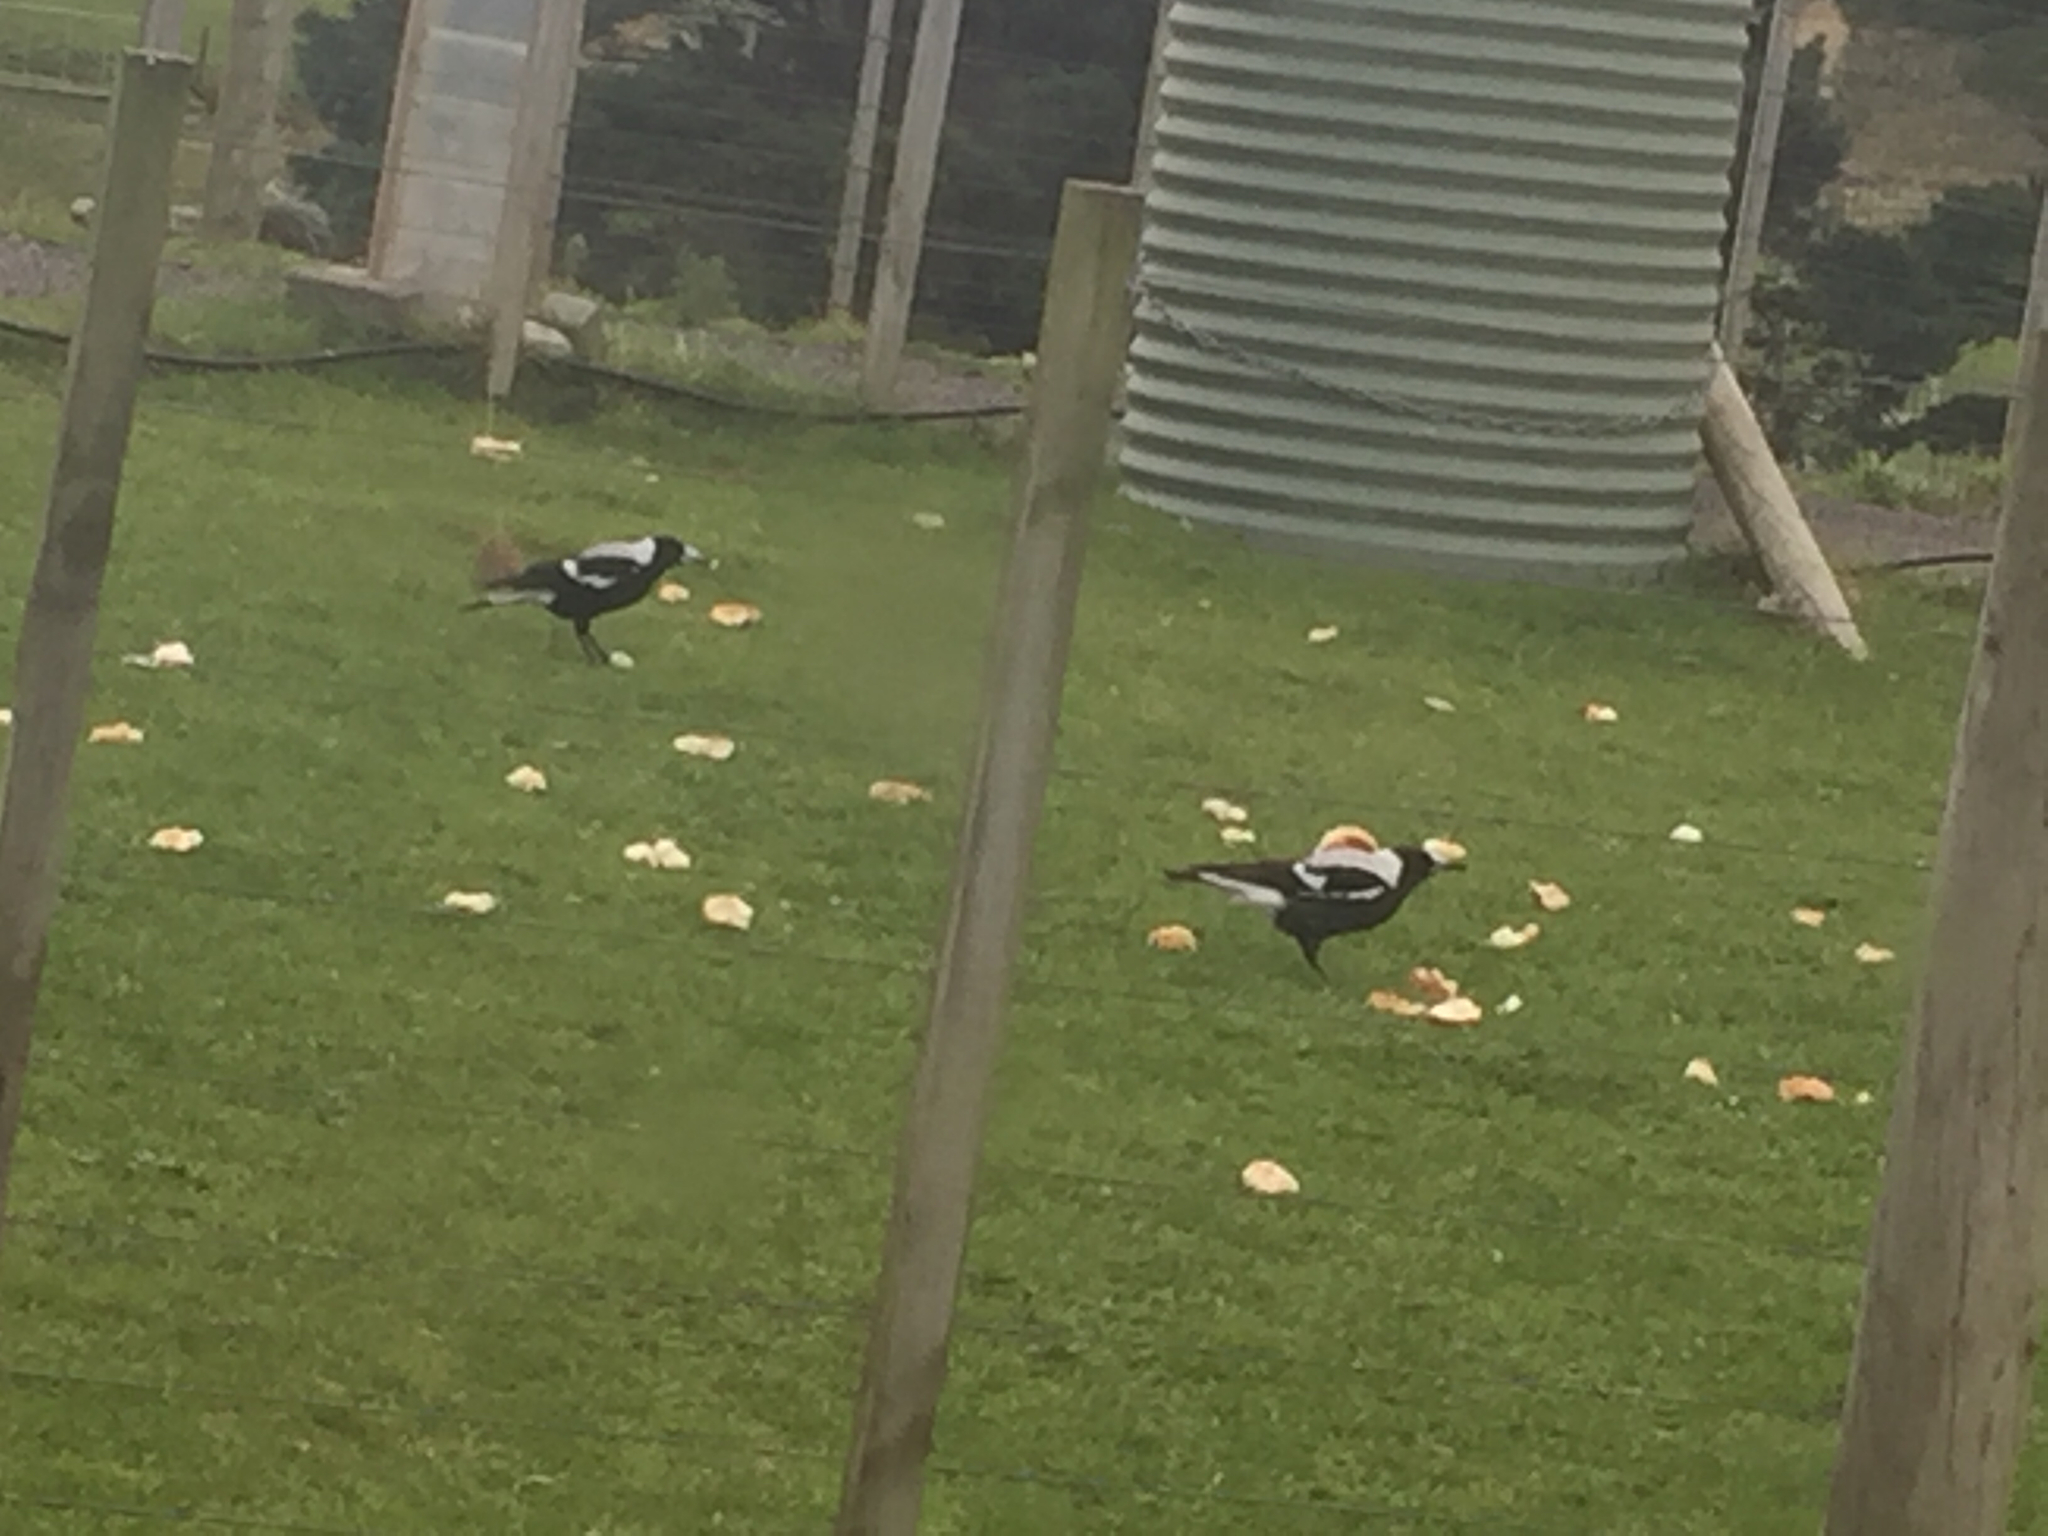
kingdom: Animalia
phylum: Chordata
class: Aves
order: Passeriformes
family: Cracticidae
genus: Gymnorhina
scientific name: Gymnorhina tibicen
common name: Australian magpie
